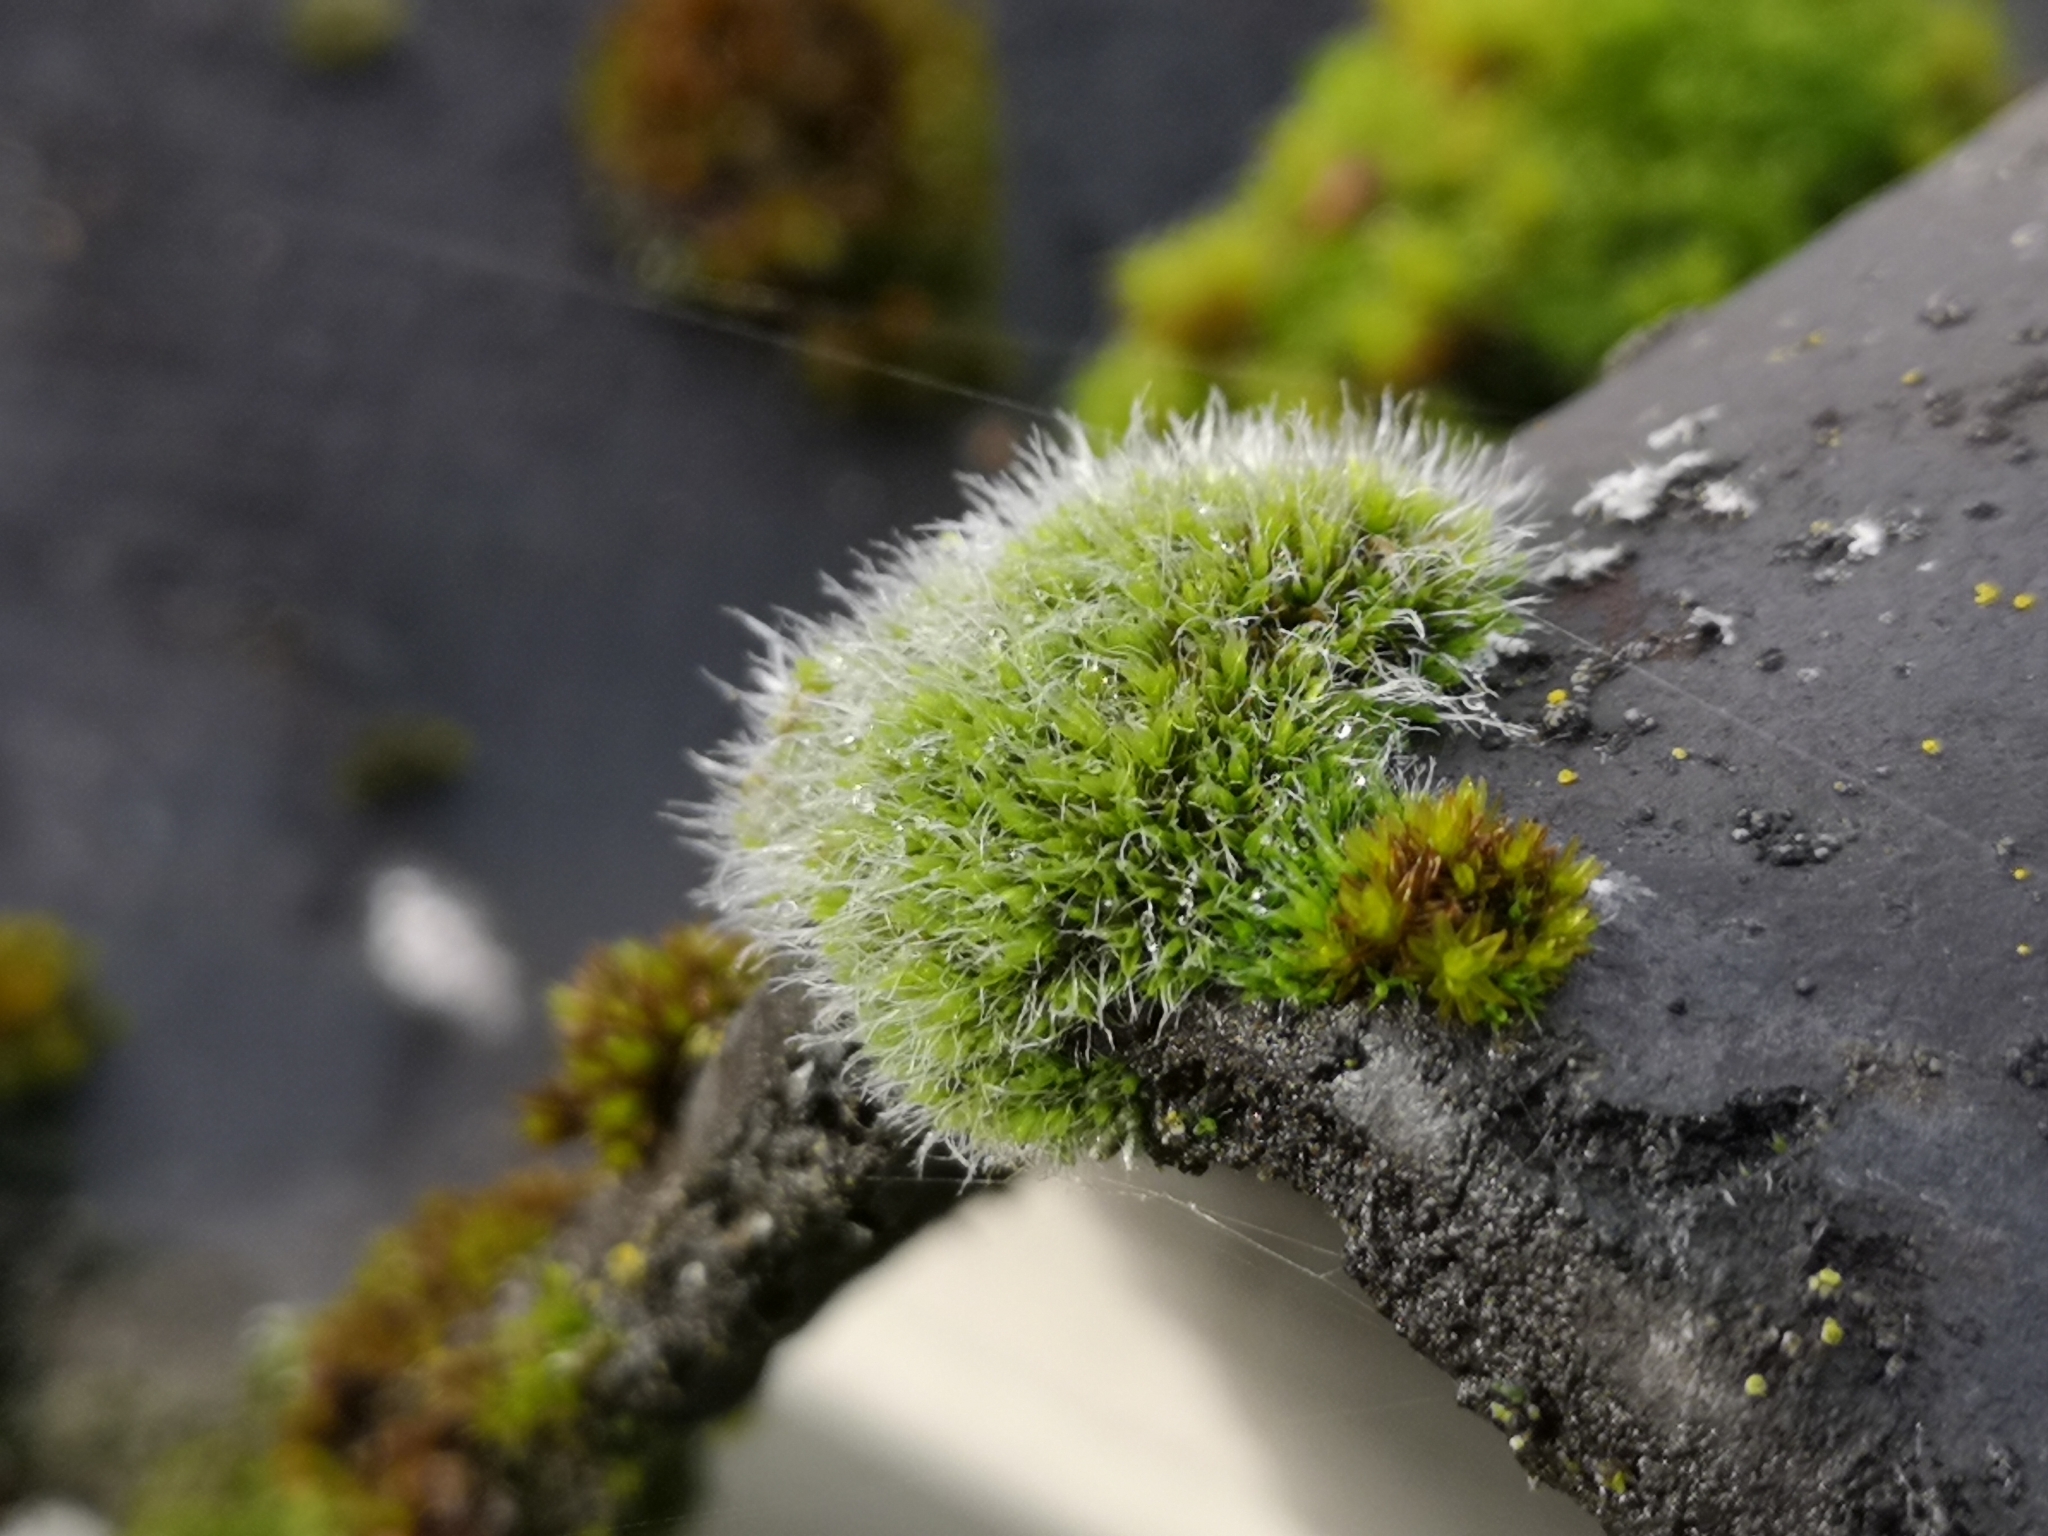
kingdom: Plantae
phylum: Bryophyta
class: Bryopsida
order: Grimmiales
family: Grimmiaceae
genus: Grimmia
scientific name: Grimmia pulvinata
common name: Grey-cushioned grimmia
